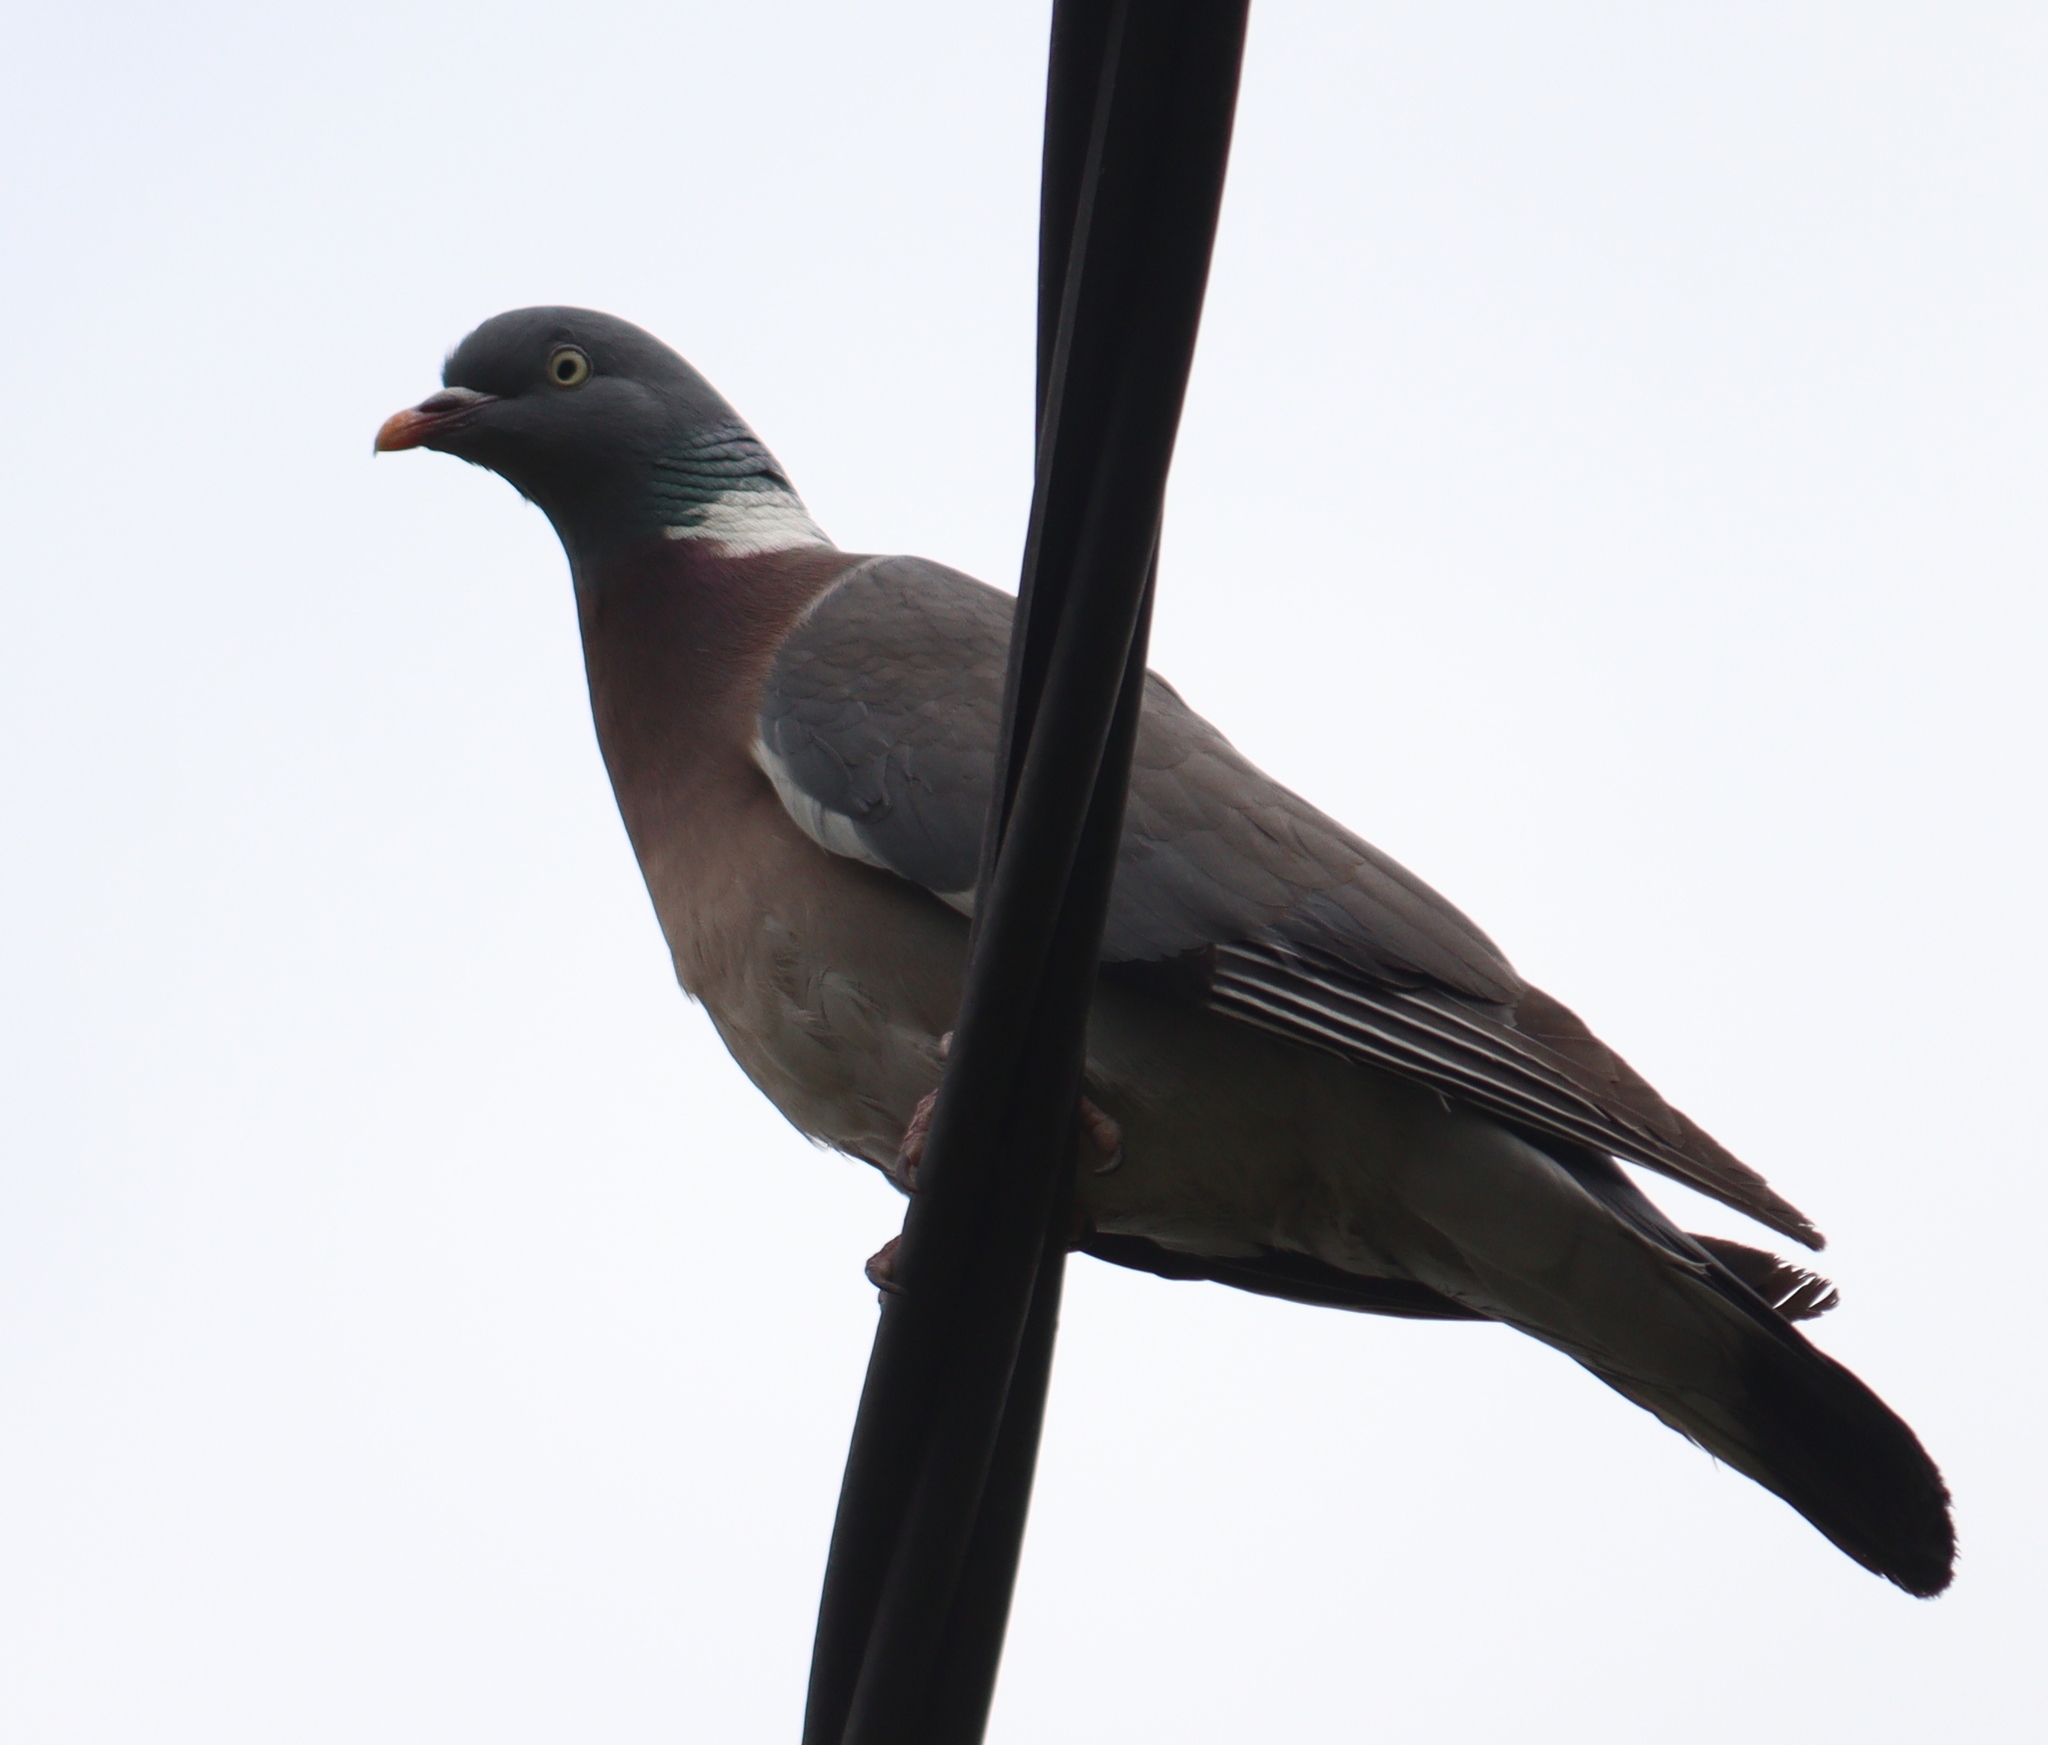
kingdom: Animalia
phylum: Chordata
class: Aves
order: Columbiformes
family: Columbidae
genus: Columba
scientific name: Columba palumbus
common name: Common wood pigeon
